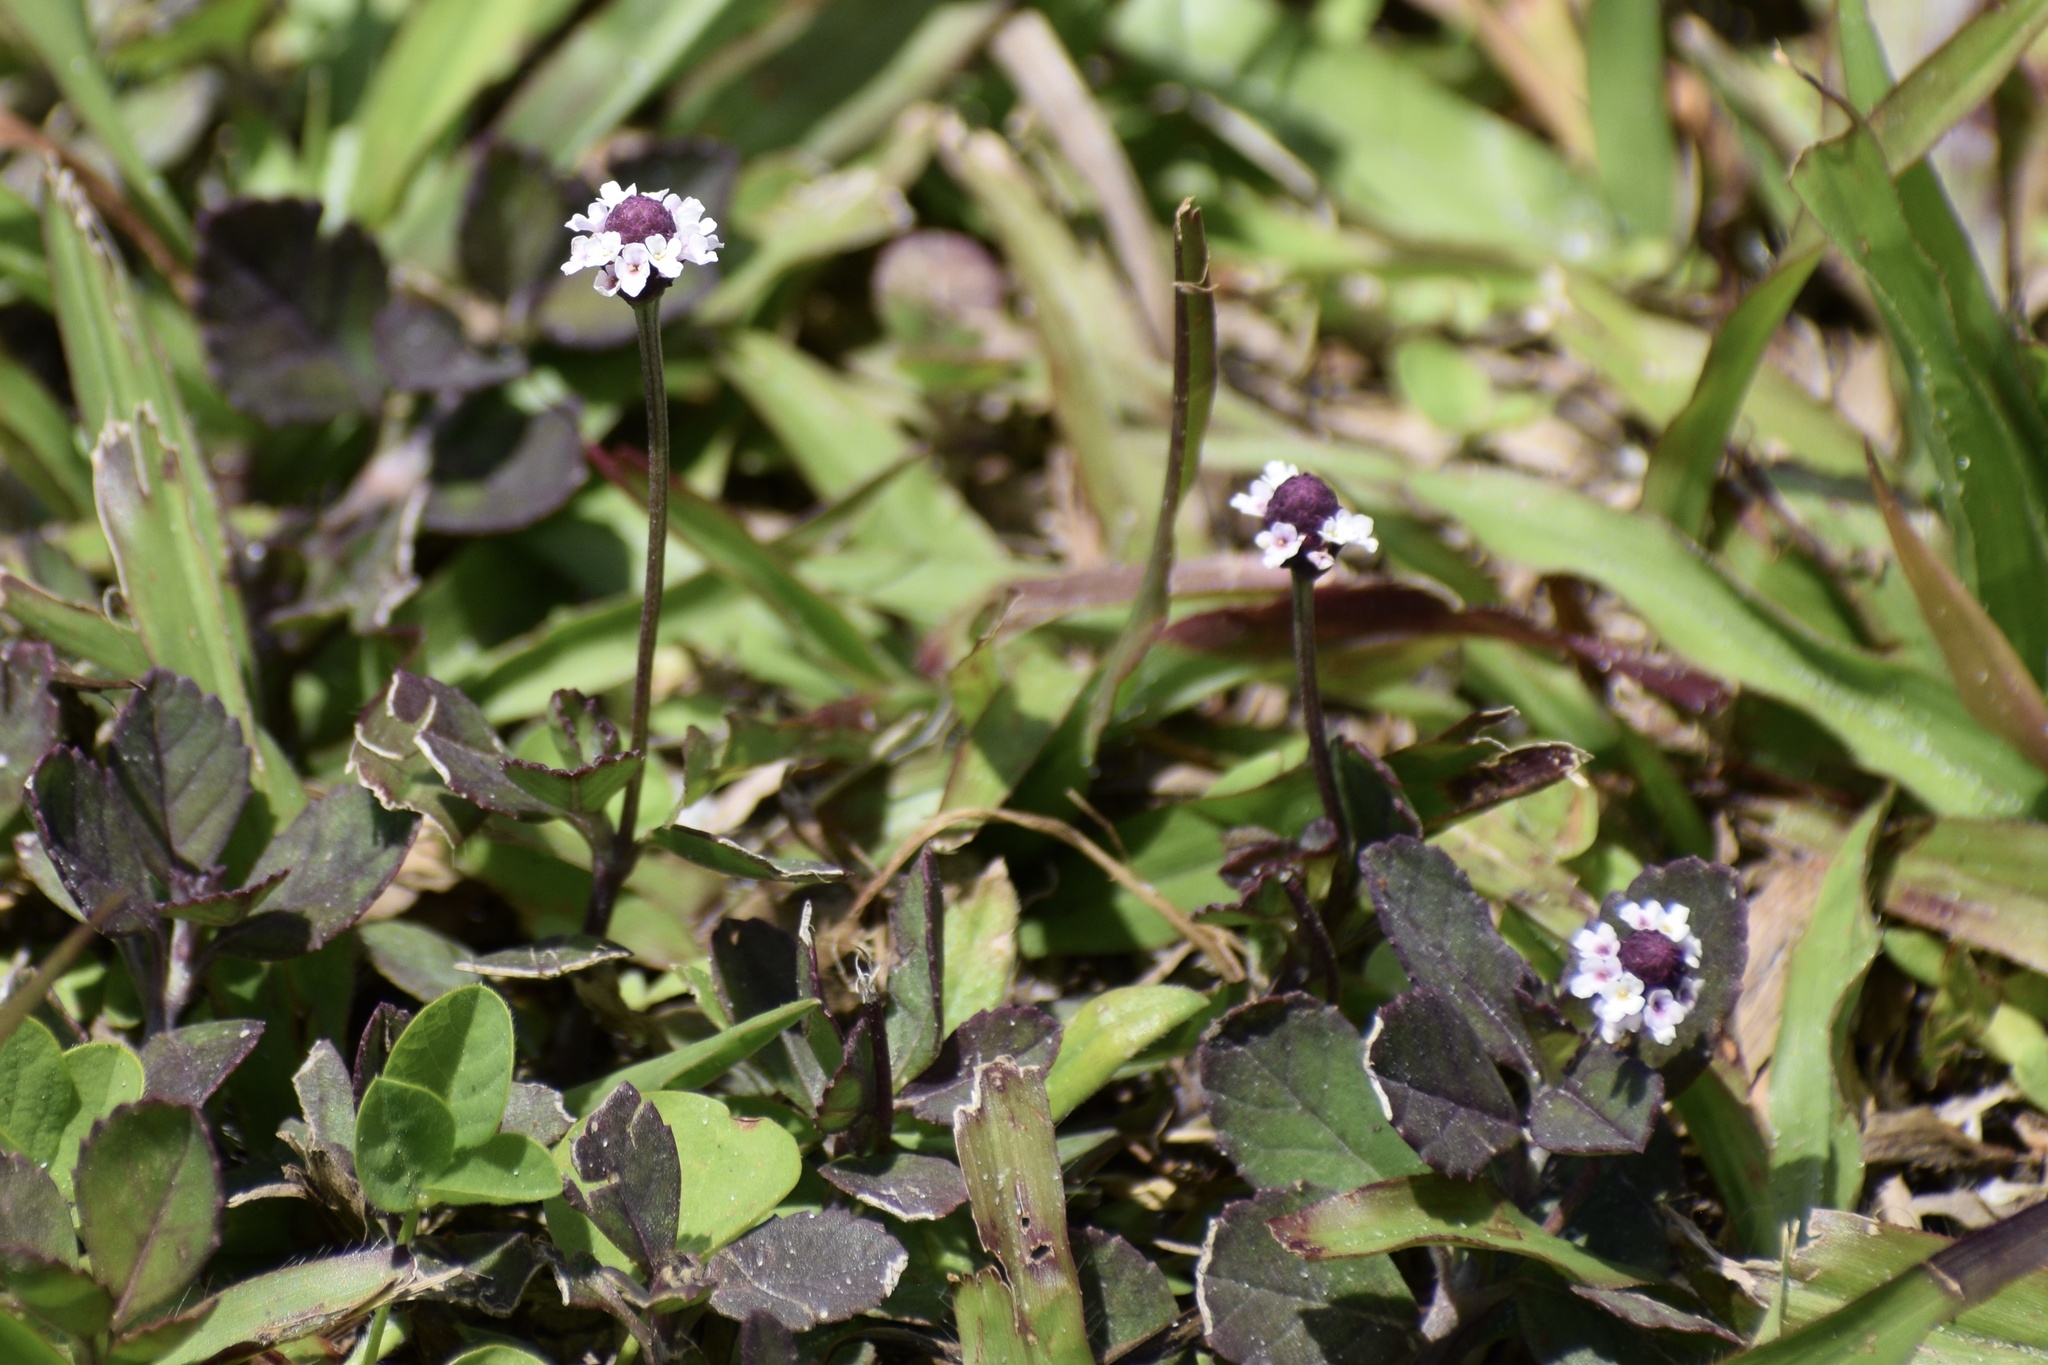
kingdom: Plantae
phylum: Tracheophyta
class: Magnoliopsida
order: Lamiales
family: Verbenaceae
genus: Phyla
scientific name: Phyla nodiflora
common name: Frogfruit
